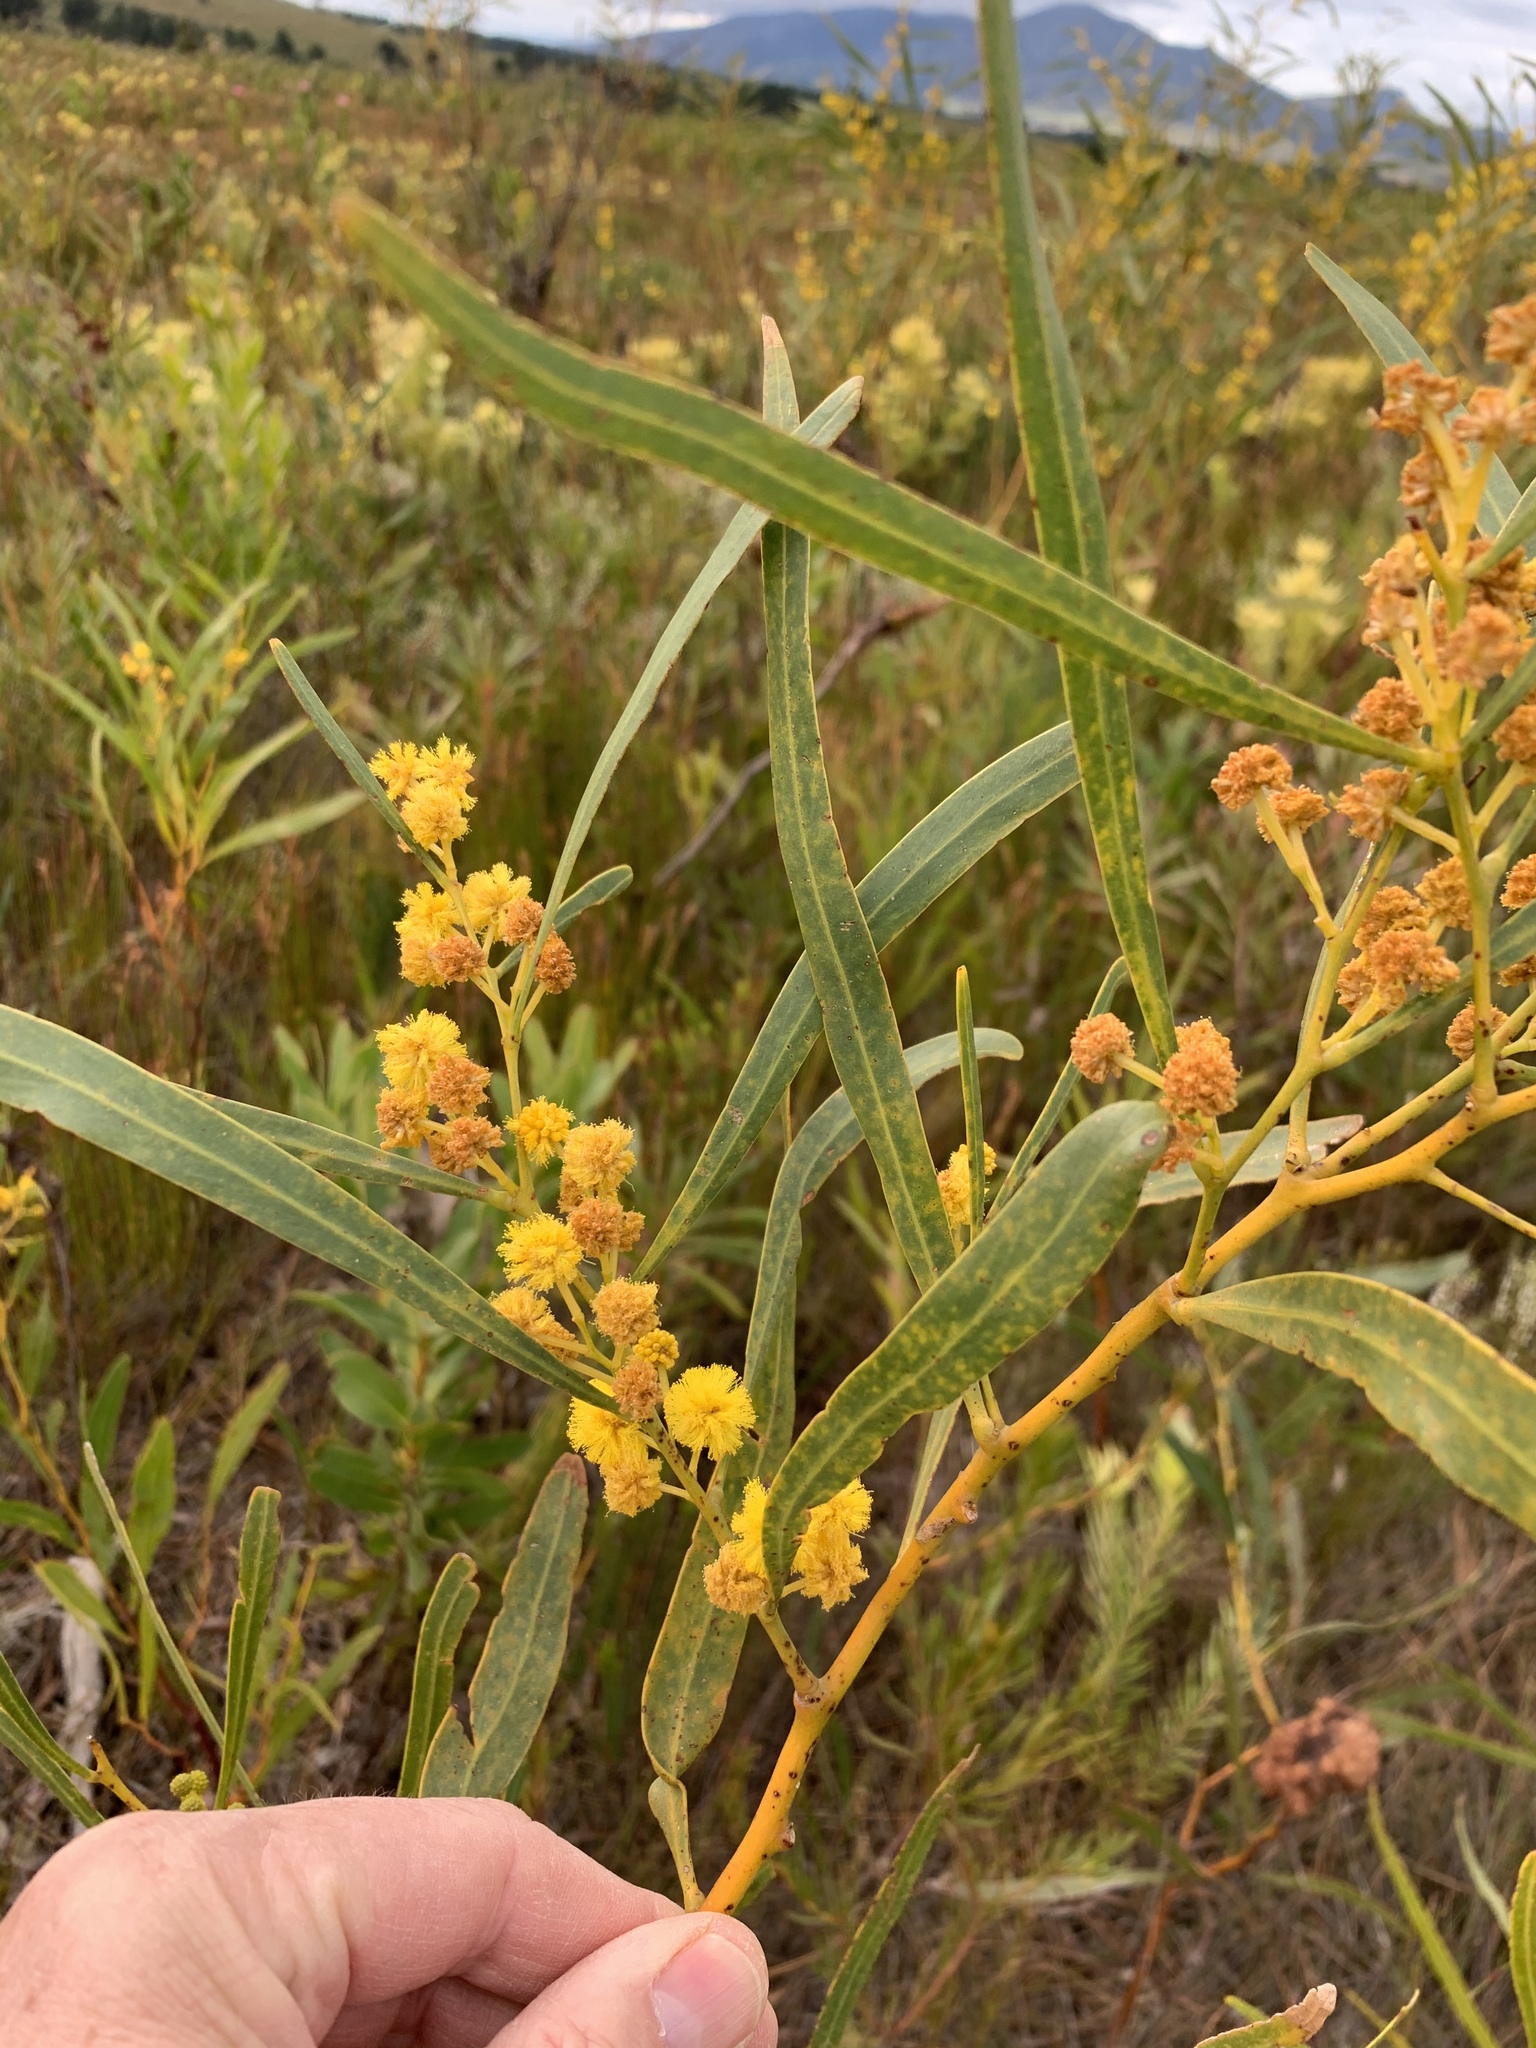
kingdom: Plantae
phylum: Tracheophyta
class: Magnoliopsida
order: Fabales
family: Fabaceae
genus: Acacia
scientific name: Acacia saligna
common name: Orange wattle
